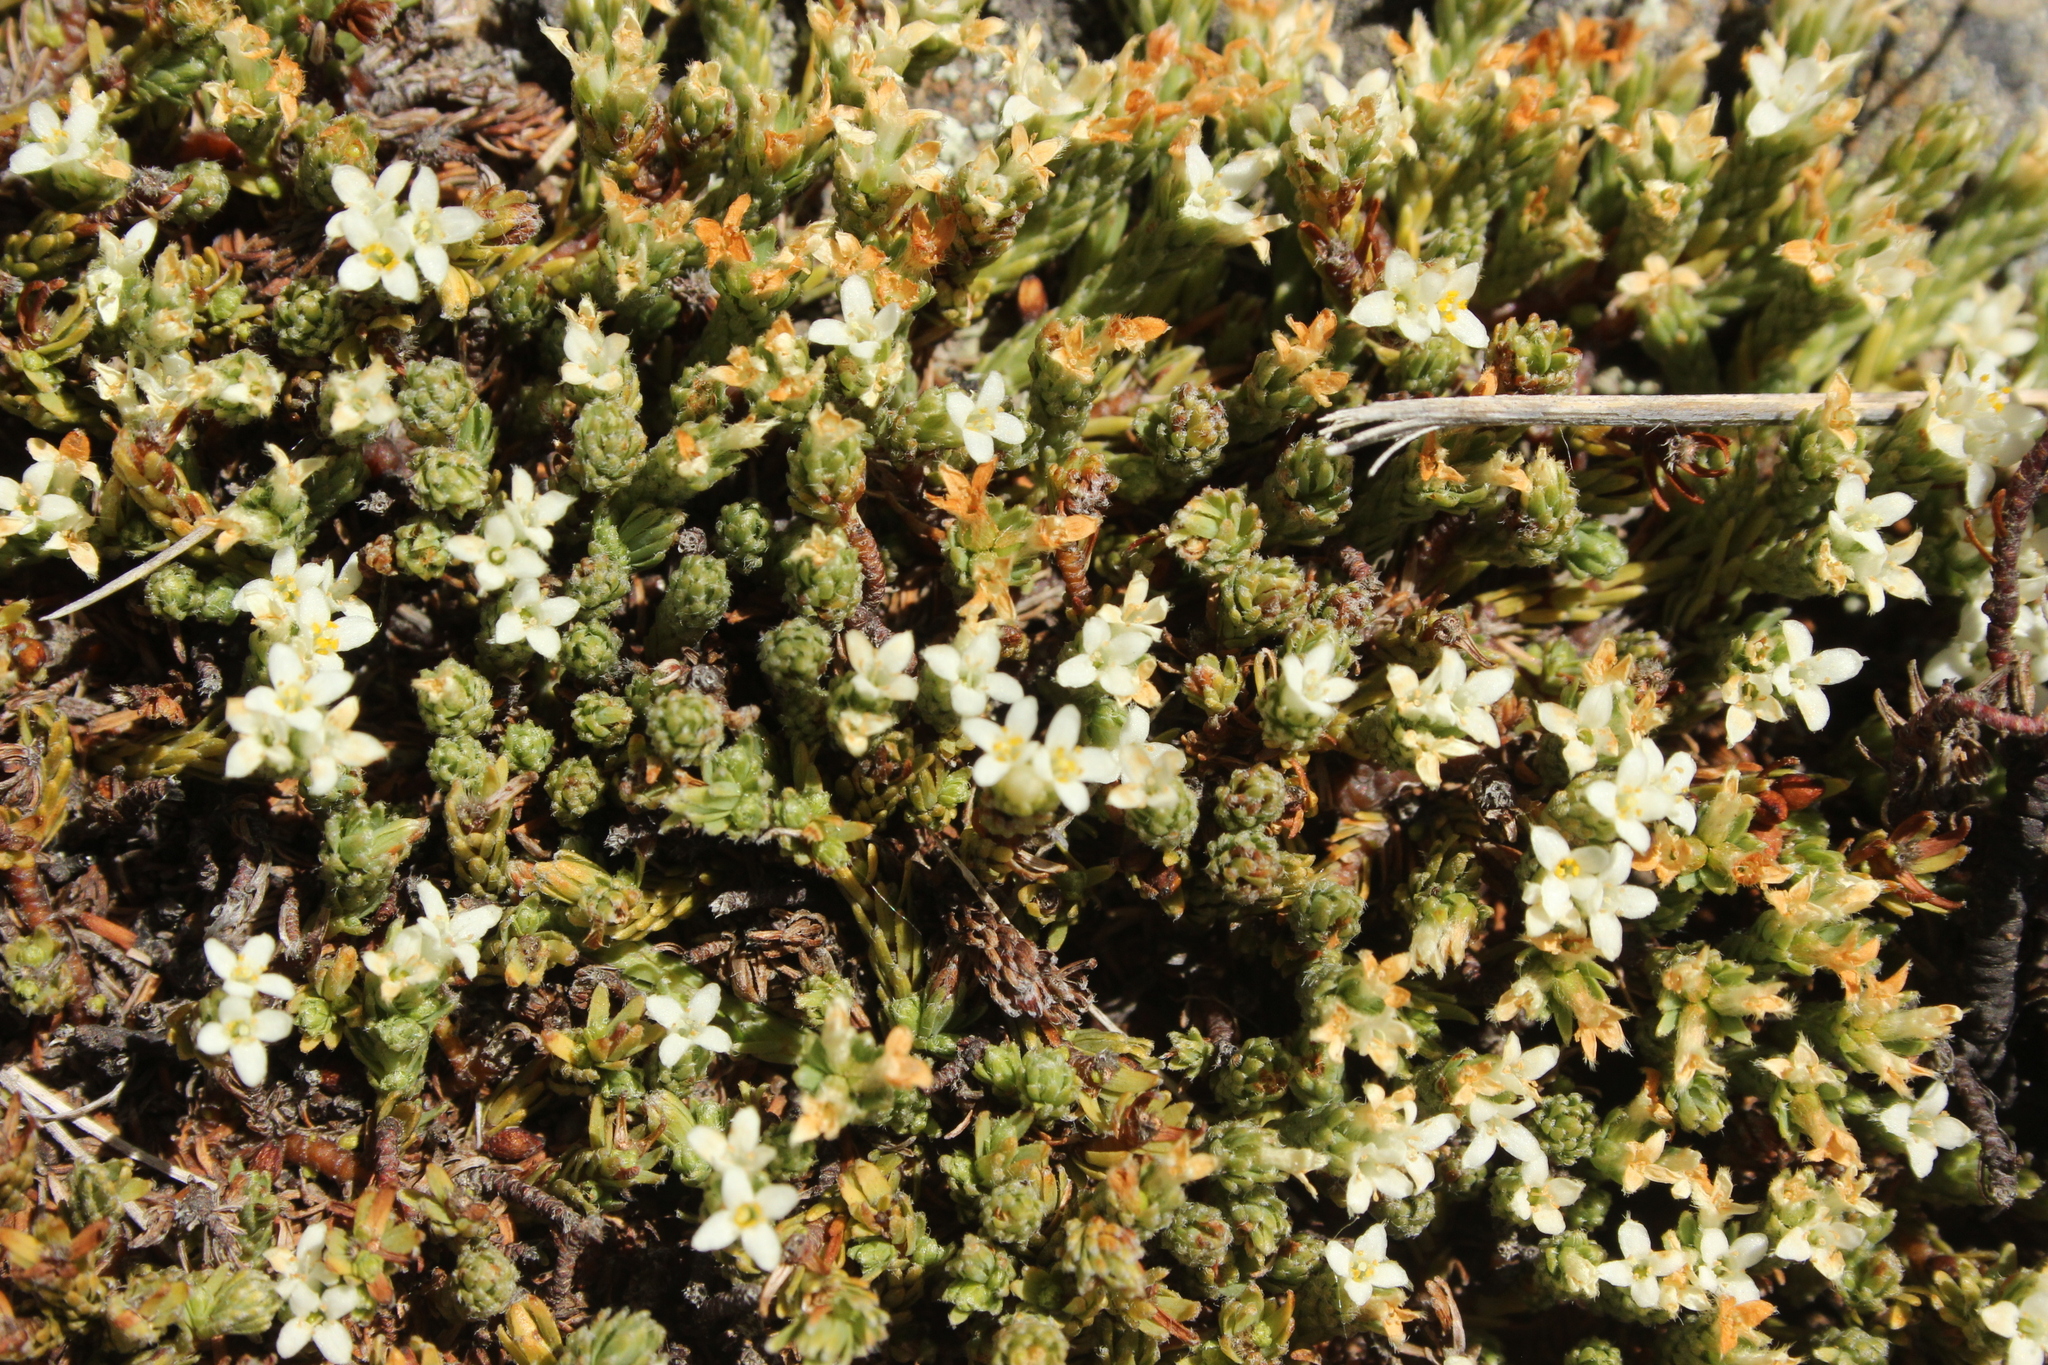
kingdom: Plantae
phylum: Tracheophyta
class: Magnoliopsida
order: Malvales
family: Thymelaeaceae
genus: Kelleria
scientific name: Kelleria dieffenbachii
